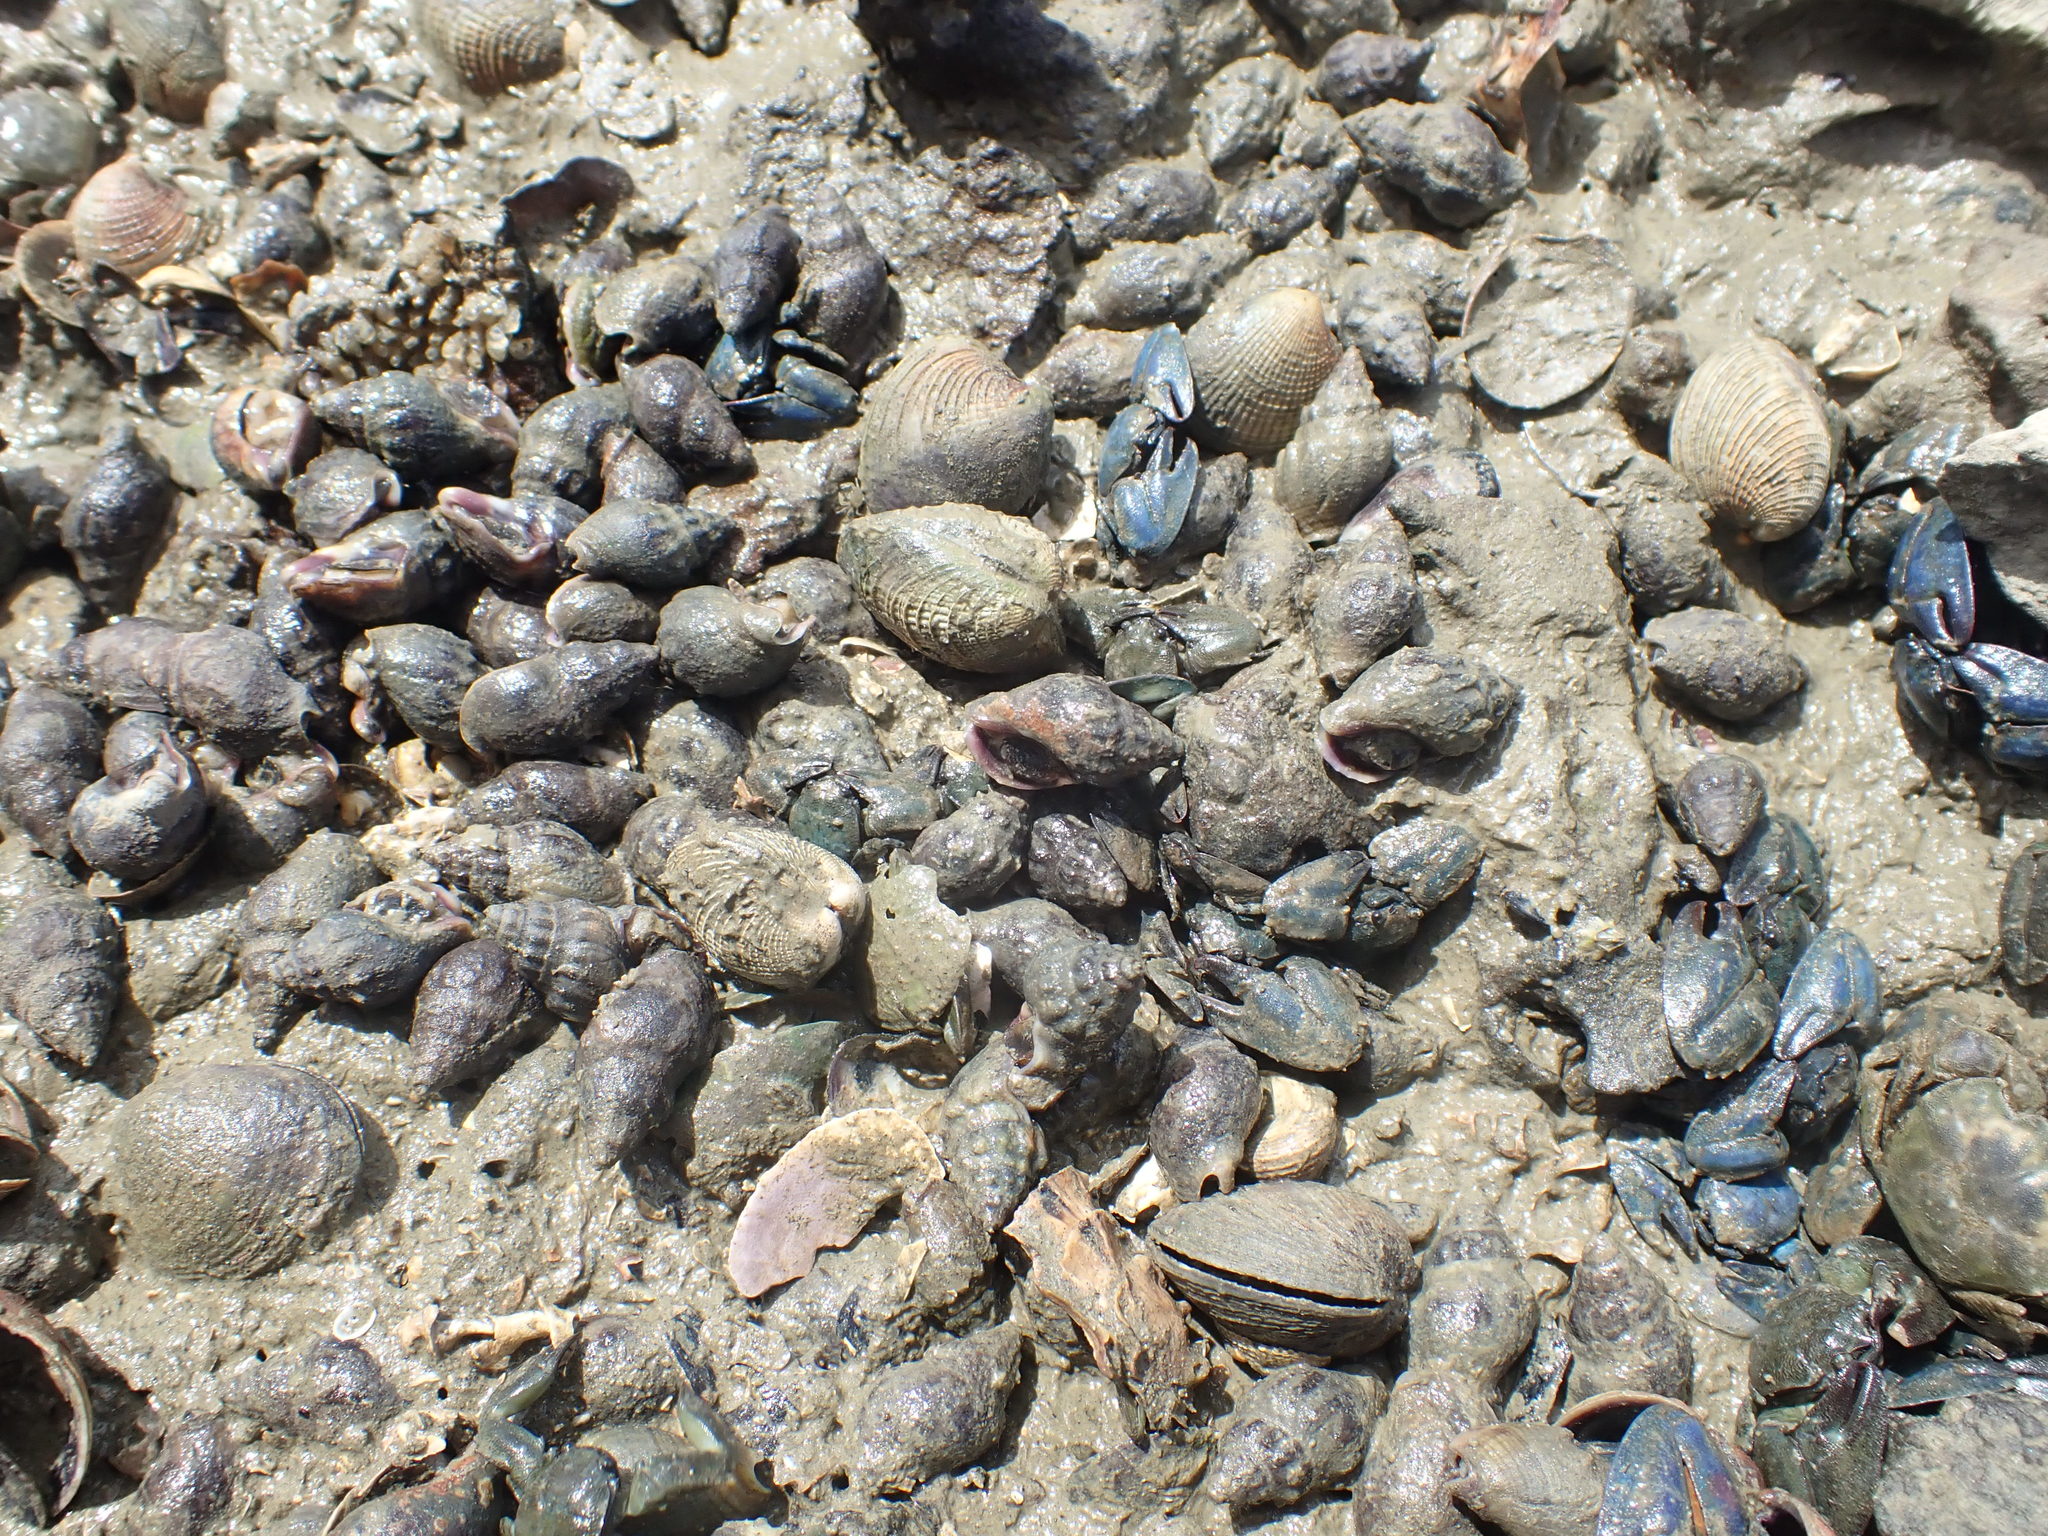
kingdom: Animalia
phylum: Mollusca
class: Gastropoda
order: Neogastropoda
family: Cominellidae
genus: Cominella
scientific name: Cominella glandiformis
